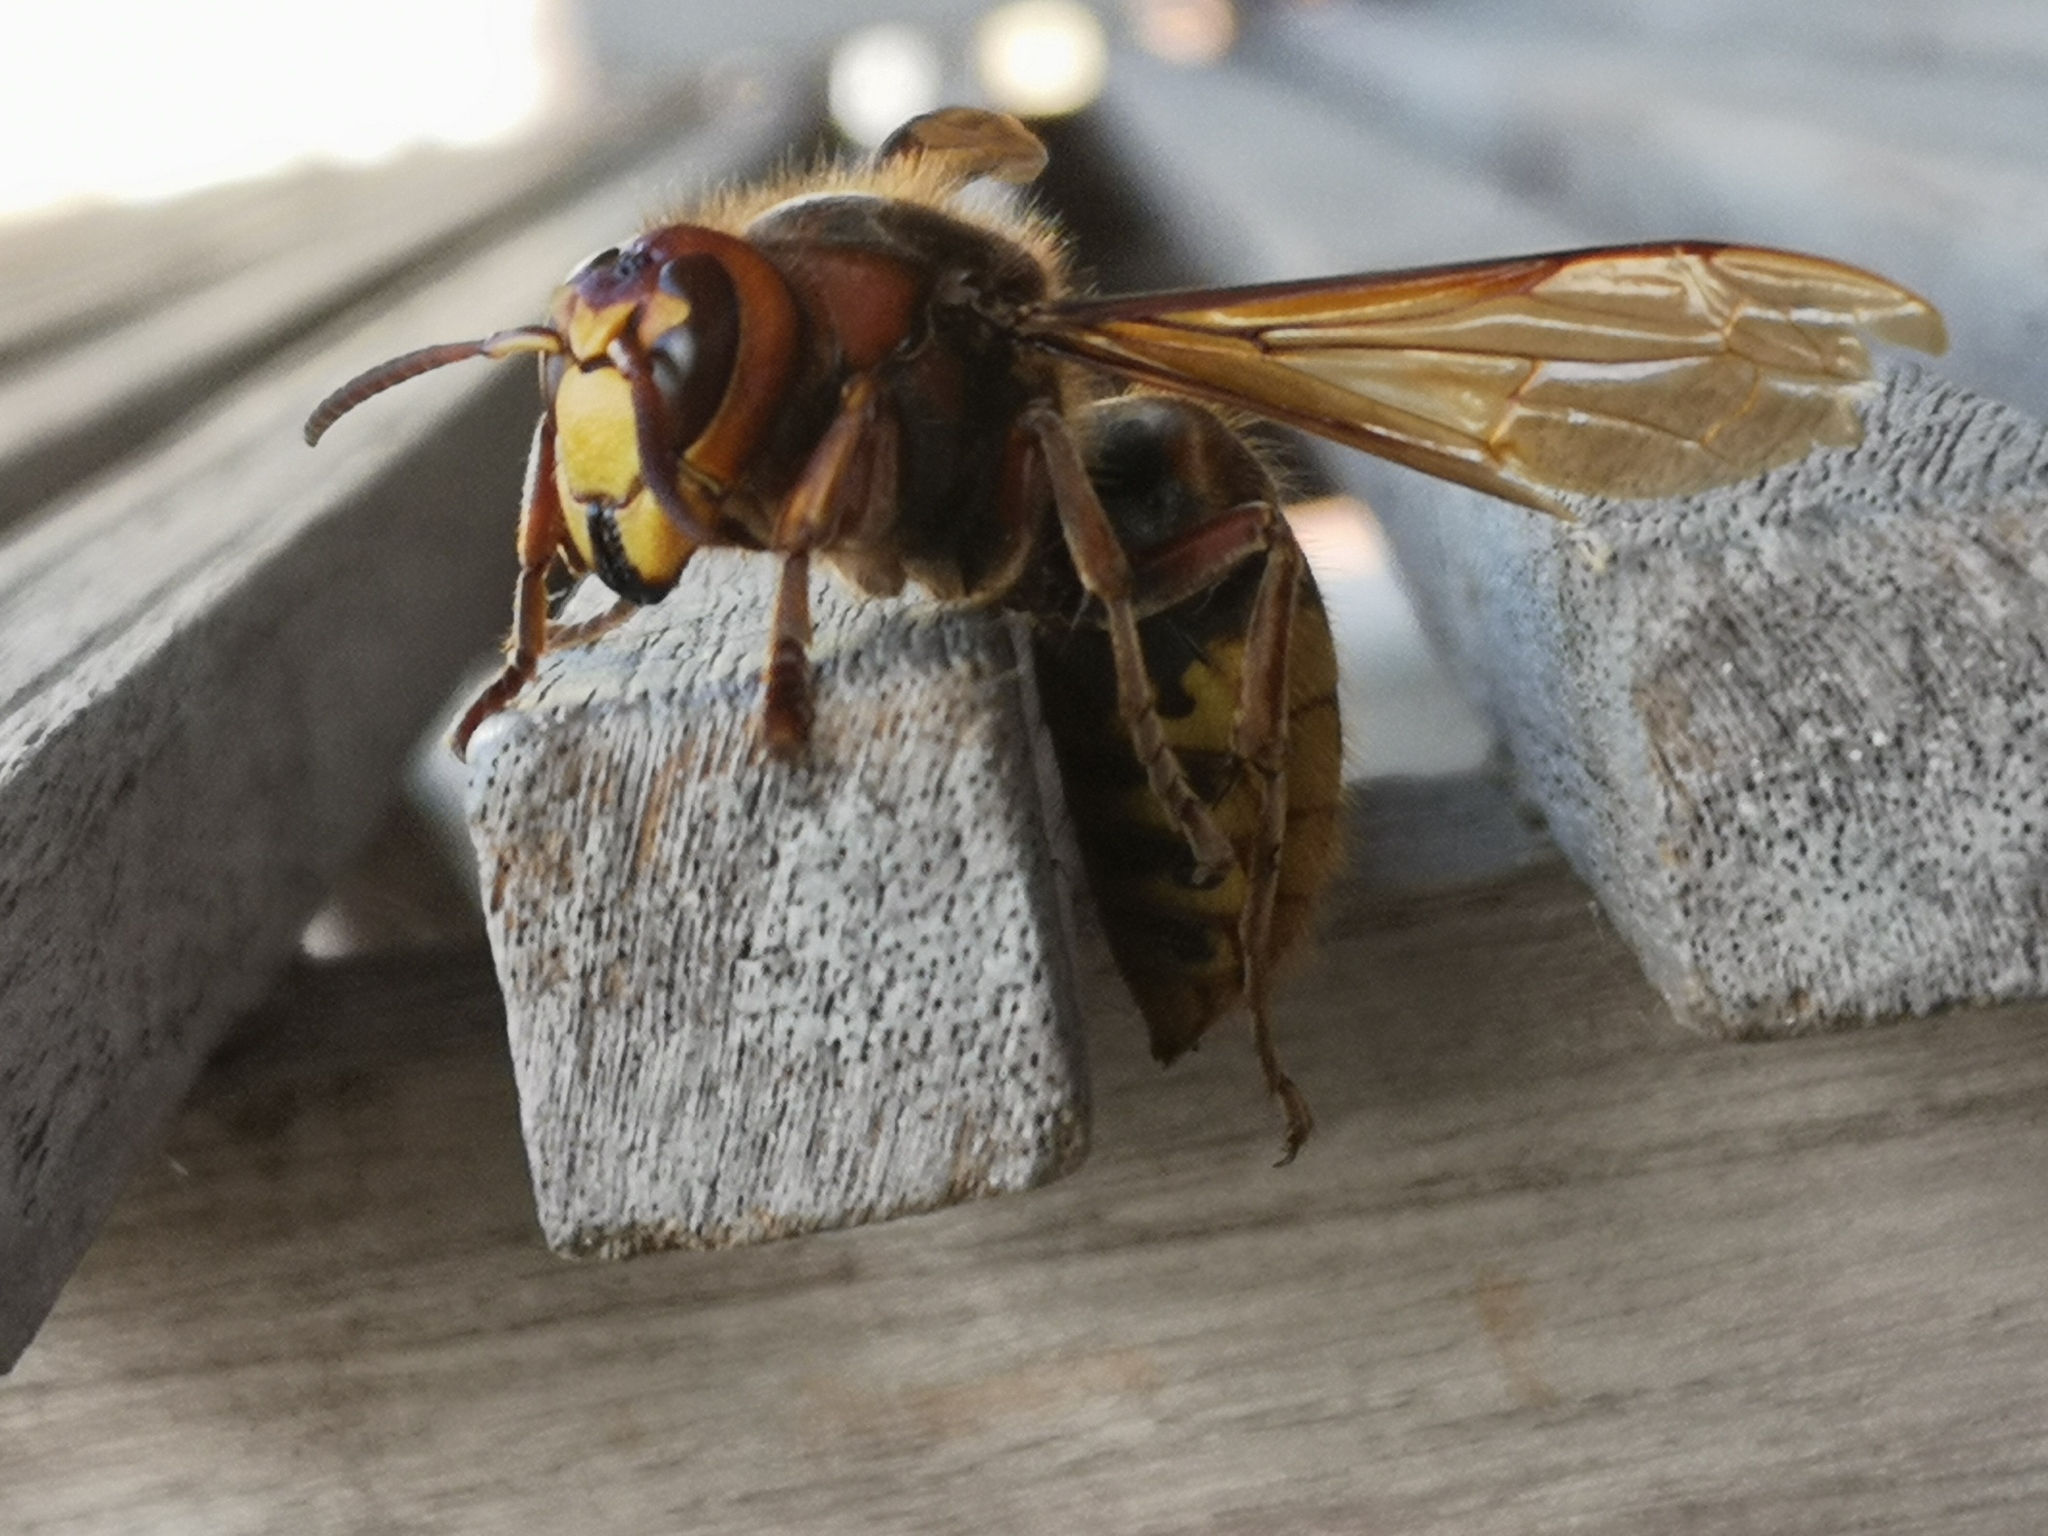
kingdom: Animalia
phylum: Arthropoda
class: Insecta
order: Hymenoptera
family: Vespidae
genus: Vespa
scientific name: Vespa crabro
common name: Hornet
